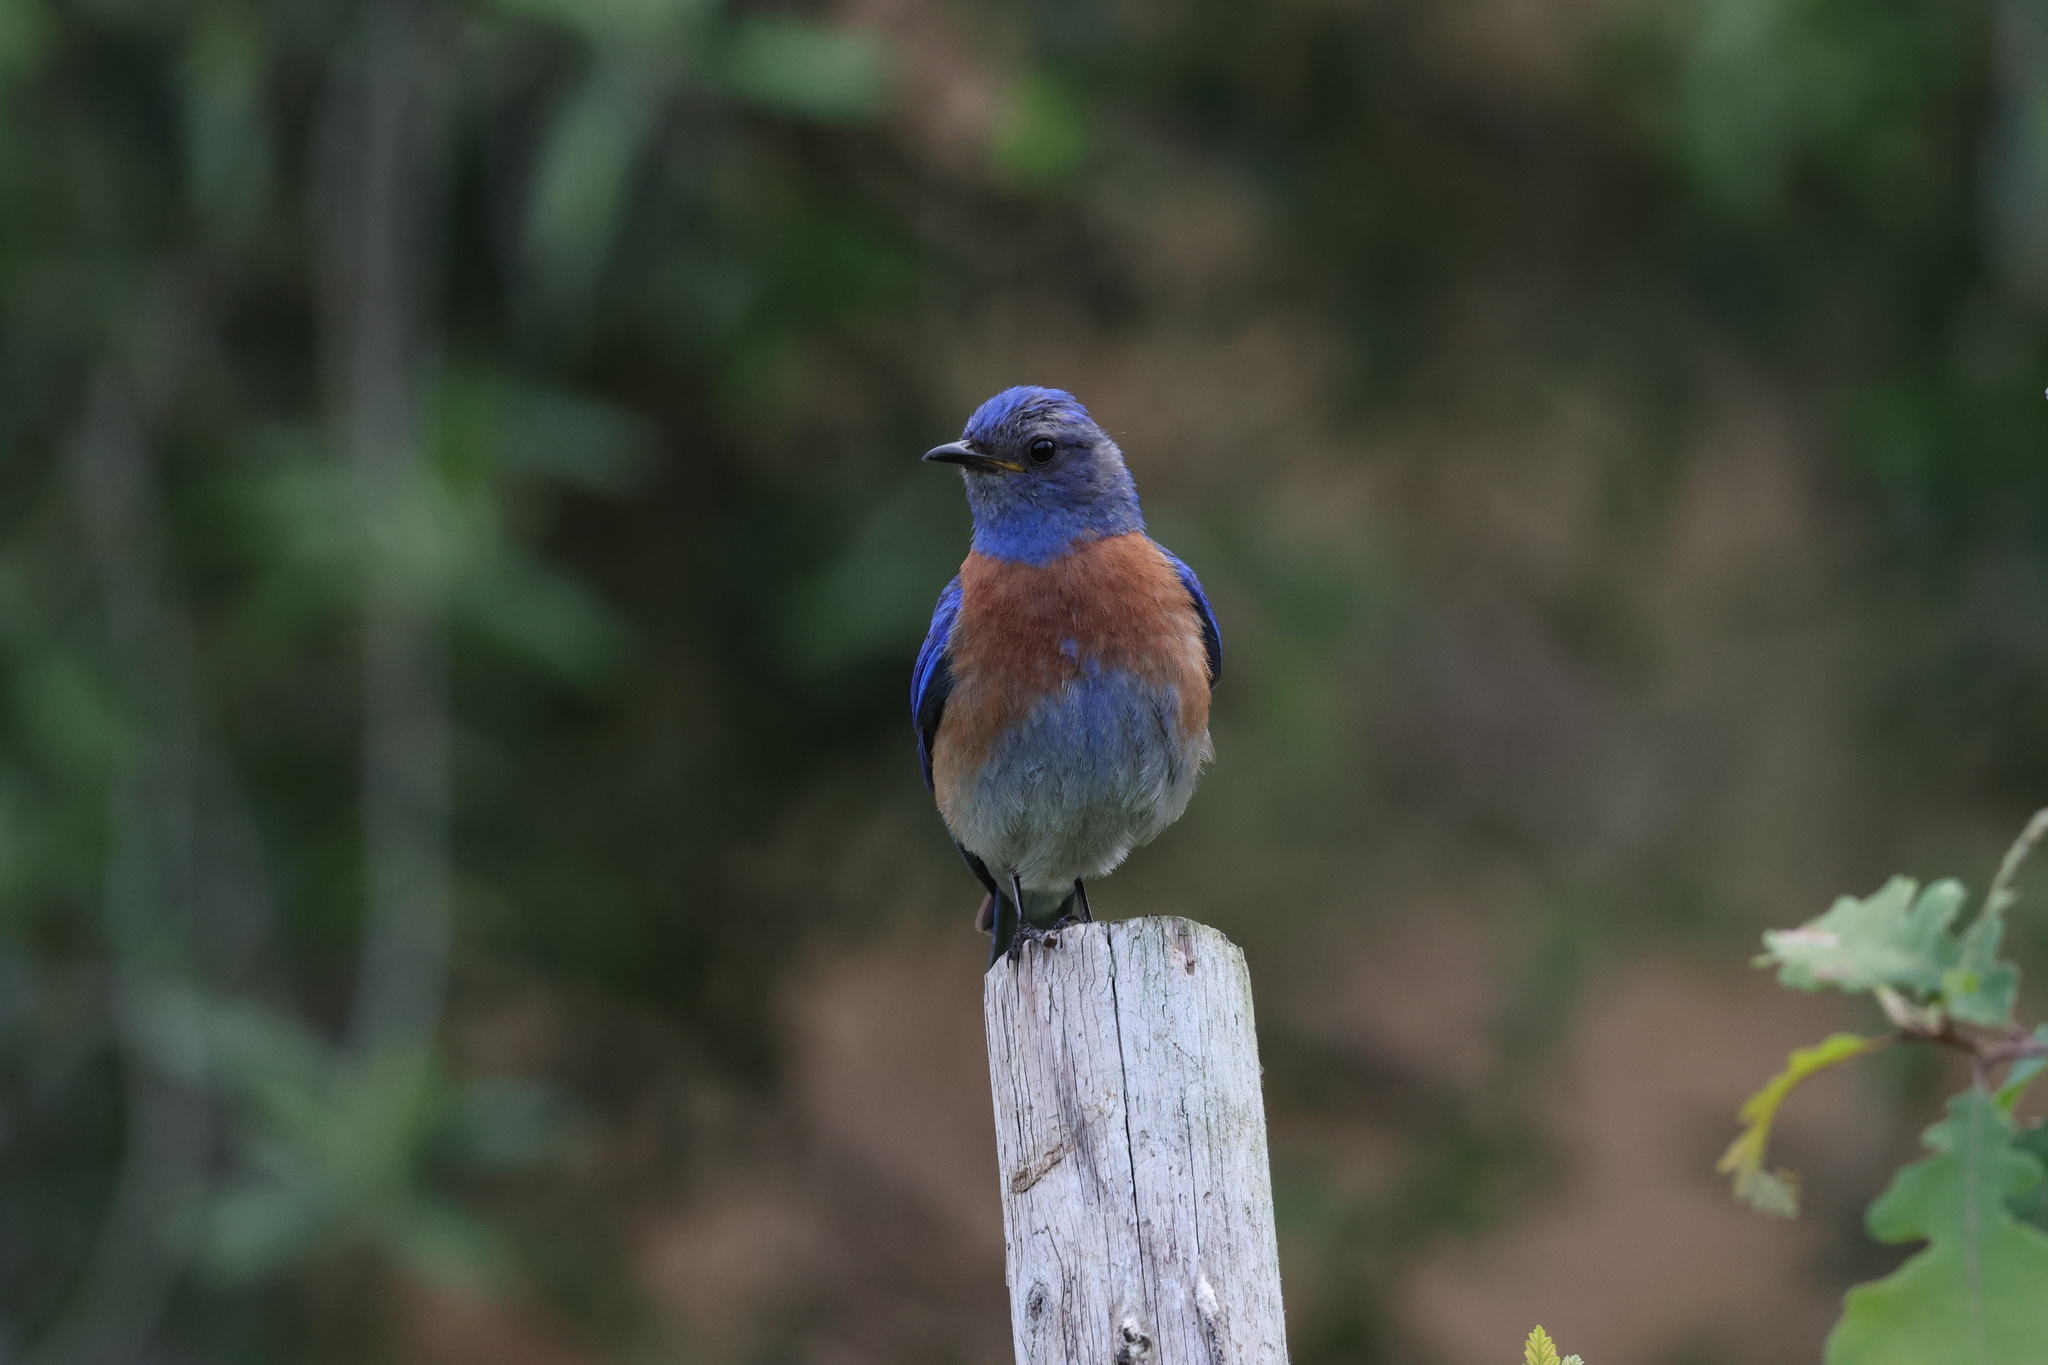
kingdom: Animalia
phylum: Chordata
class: Aves
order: Passeriformes
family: Turdidae
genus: Sialia
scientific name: Sialia mexicana
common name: Western bluebird
